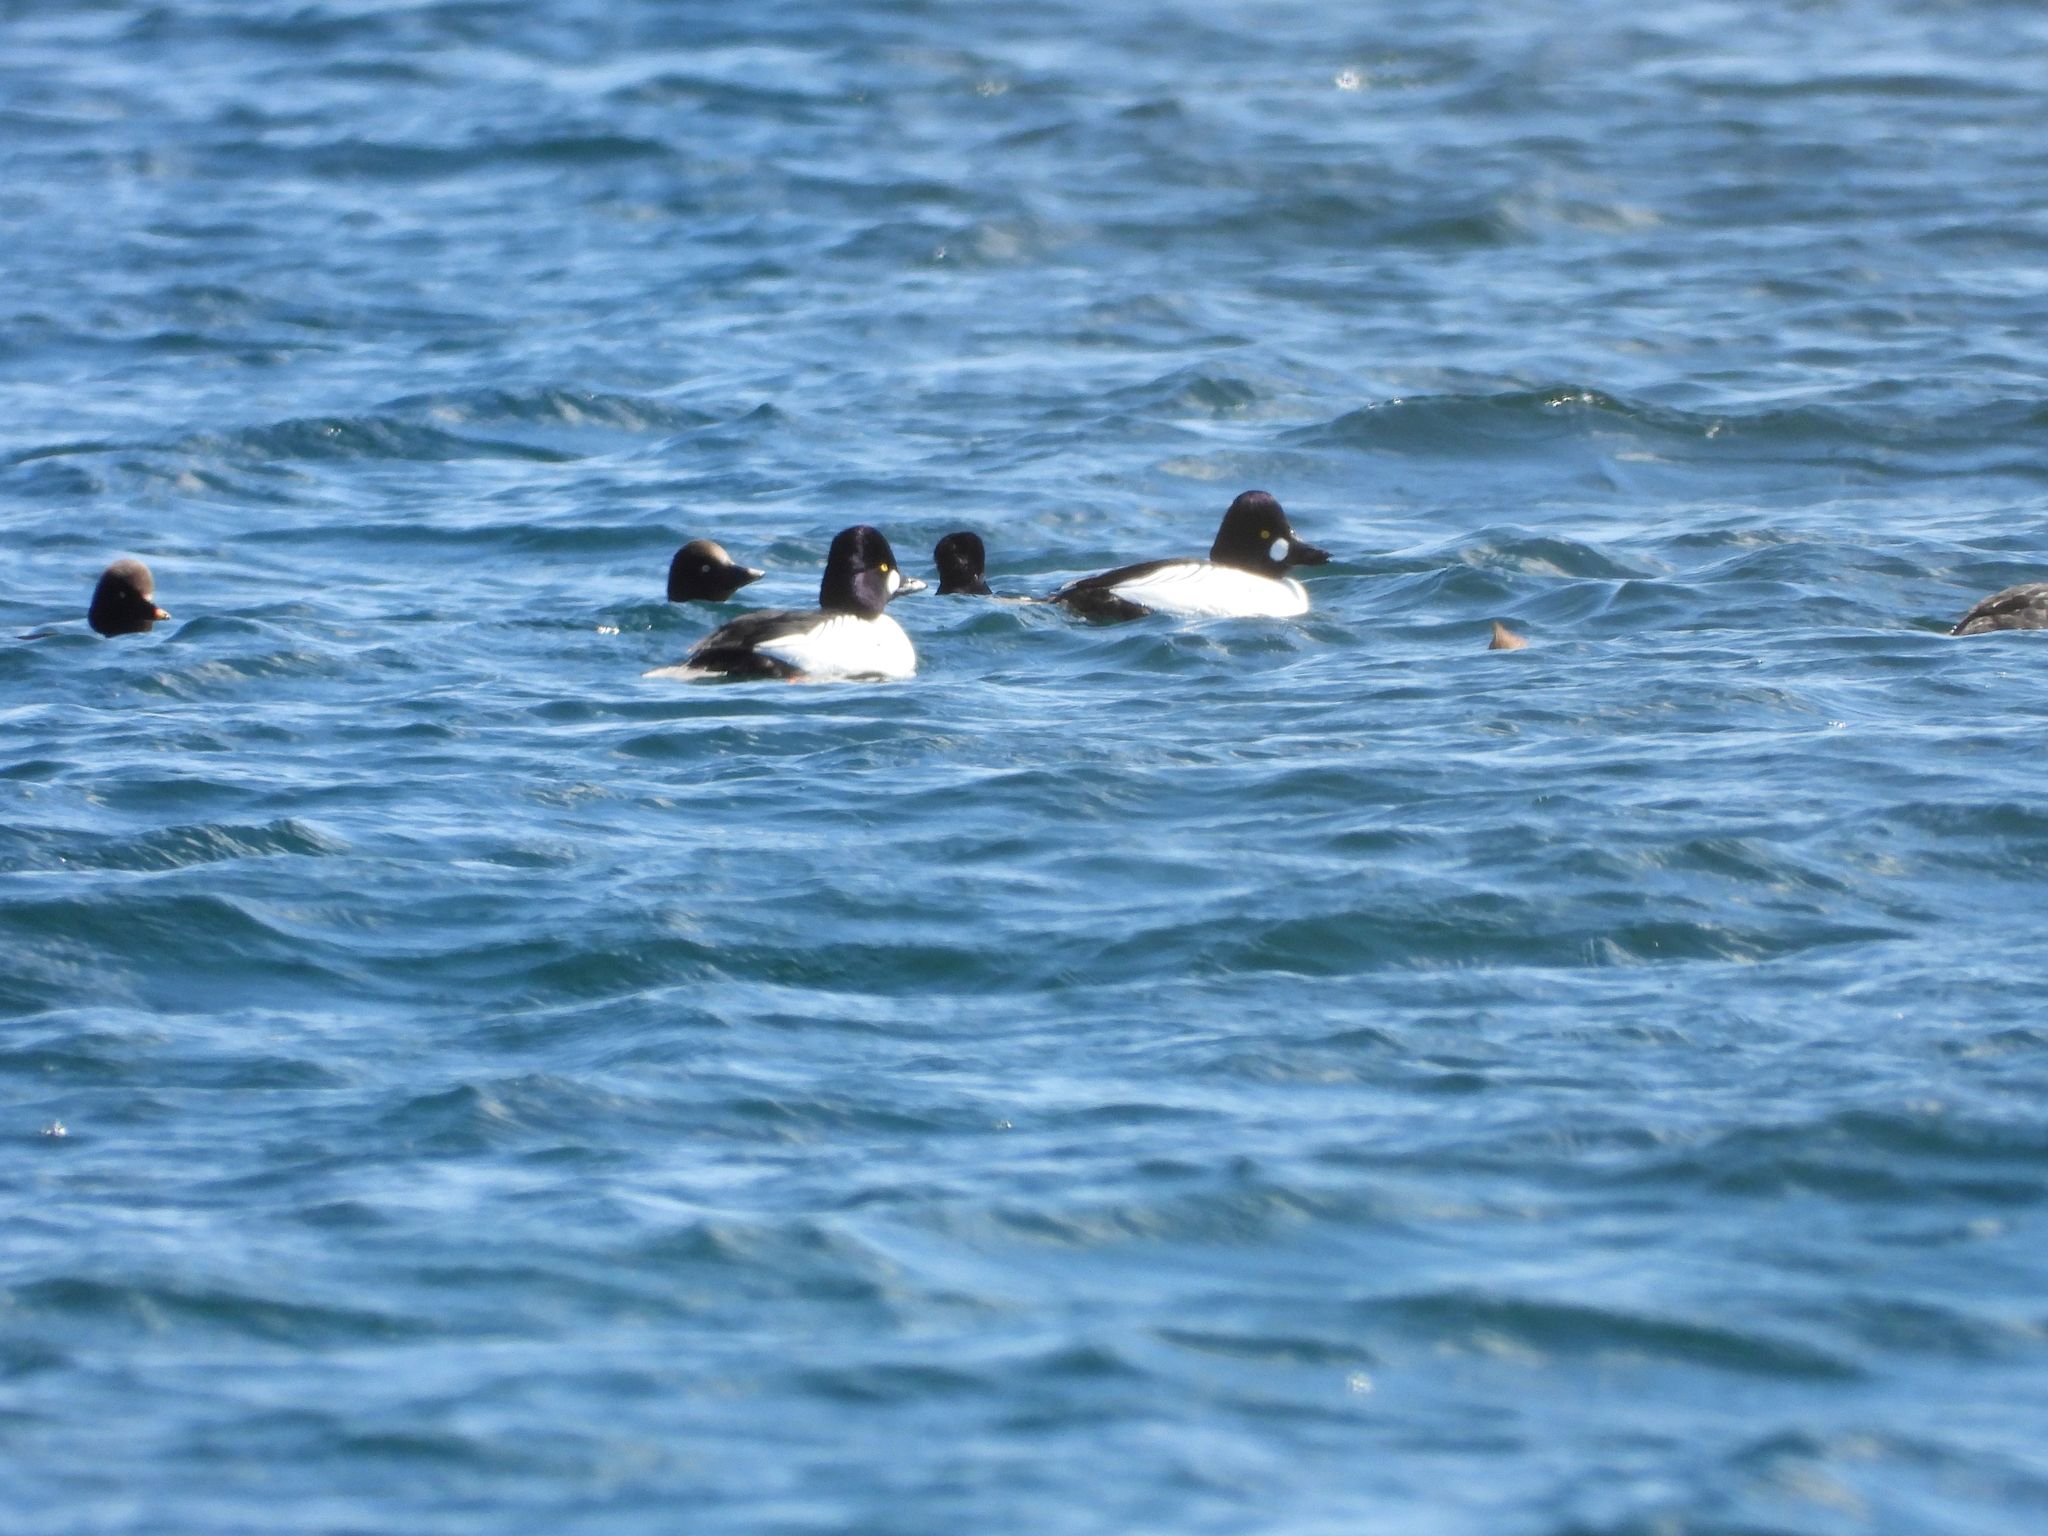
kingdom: Animalia
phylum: Chordata
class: Aves
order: Anseriformes
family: Anatidae
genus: Bucephala
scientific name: Bucephala clangula
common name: Common goldeneye
